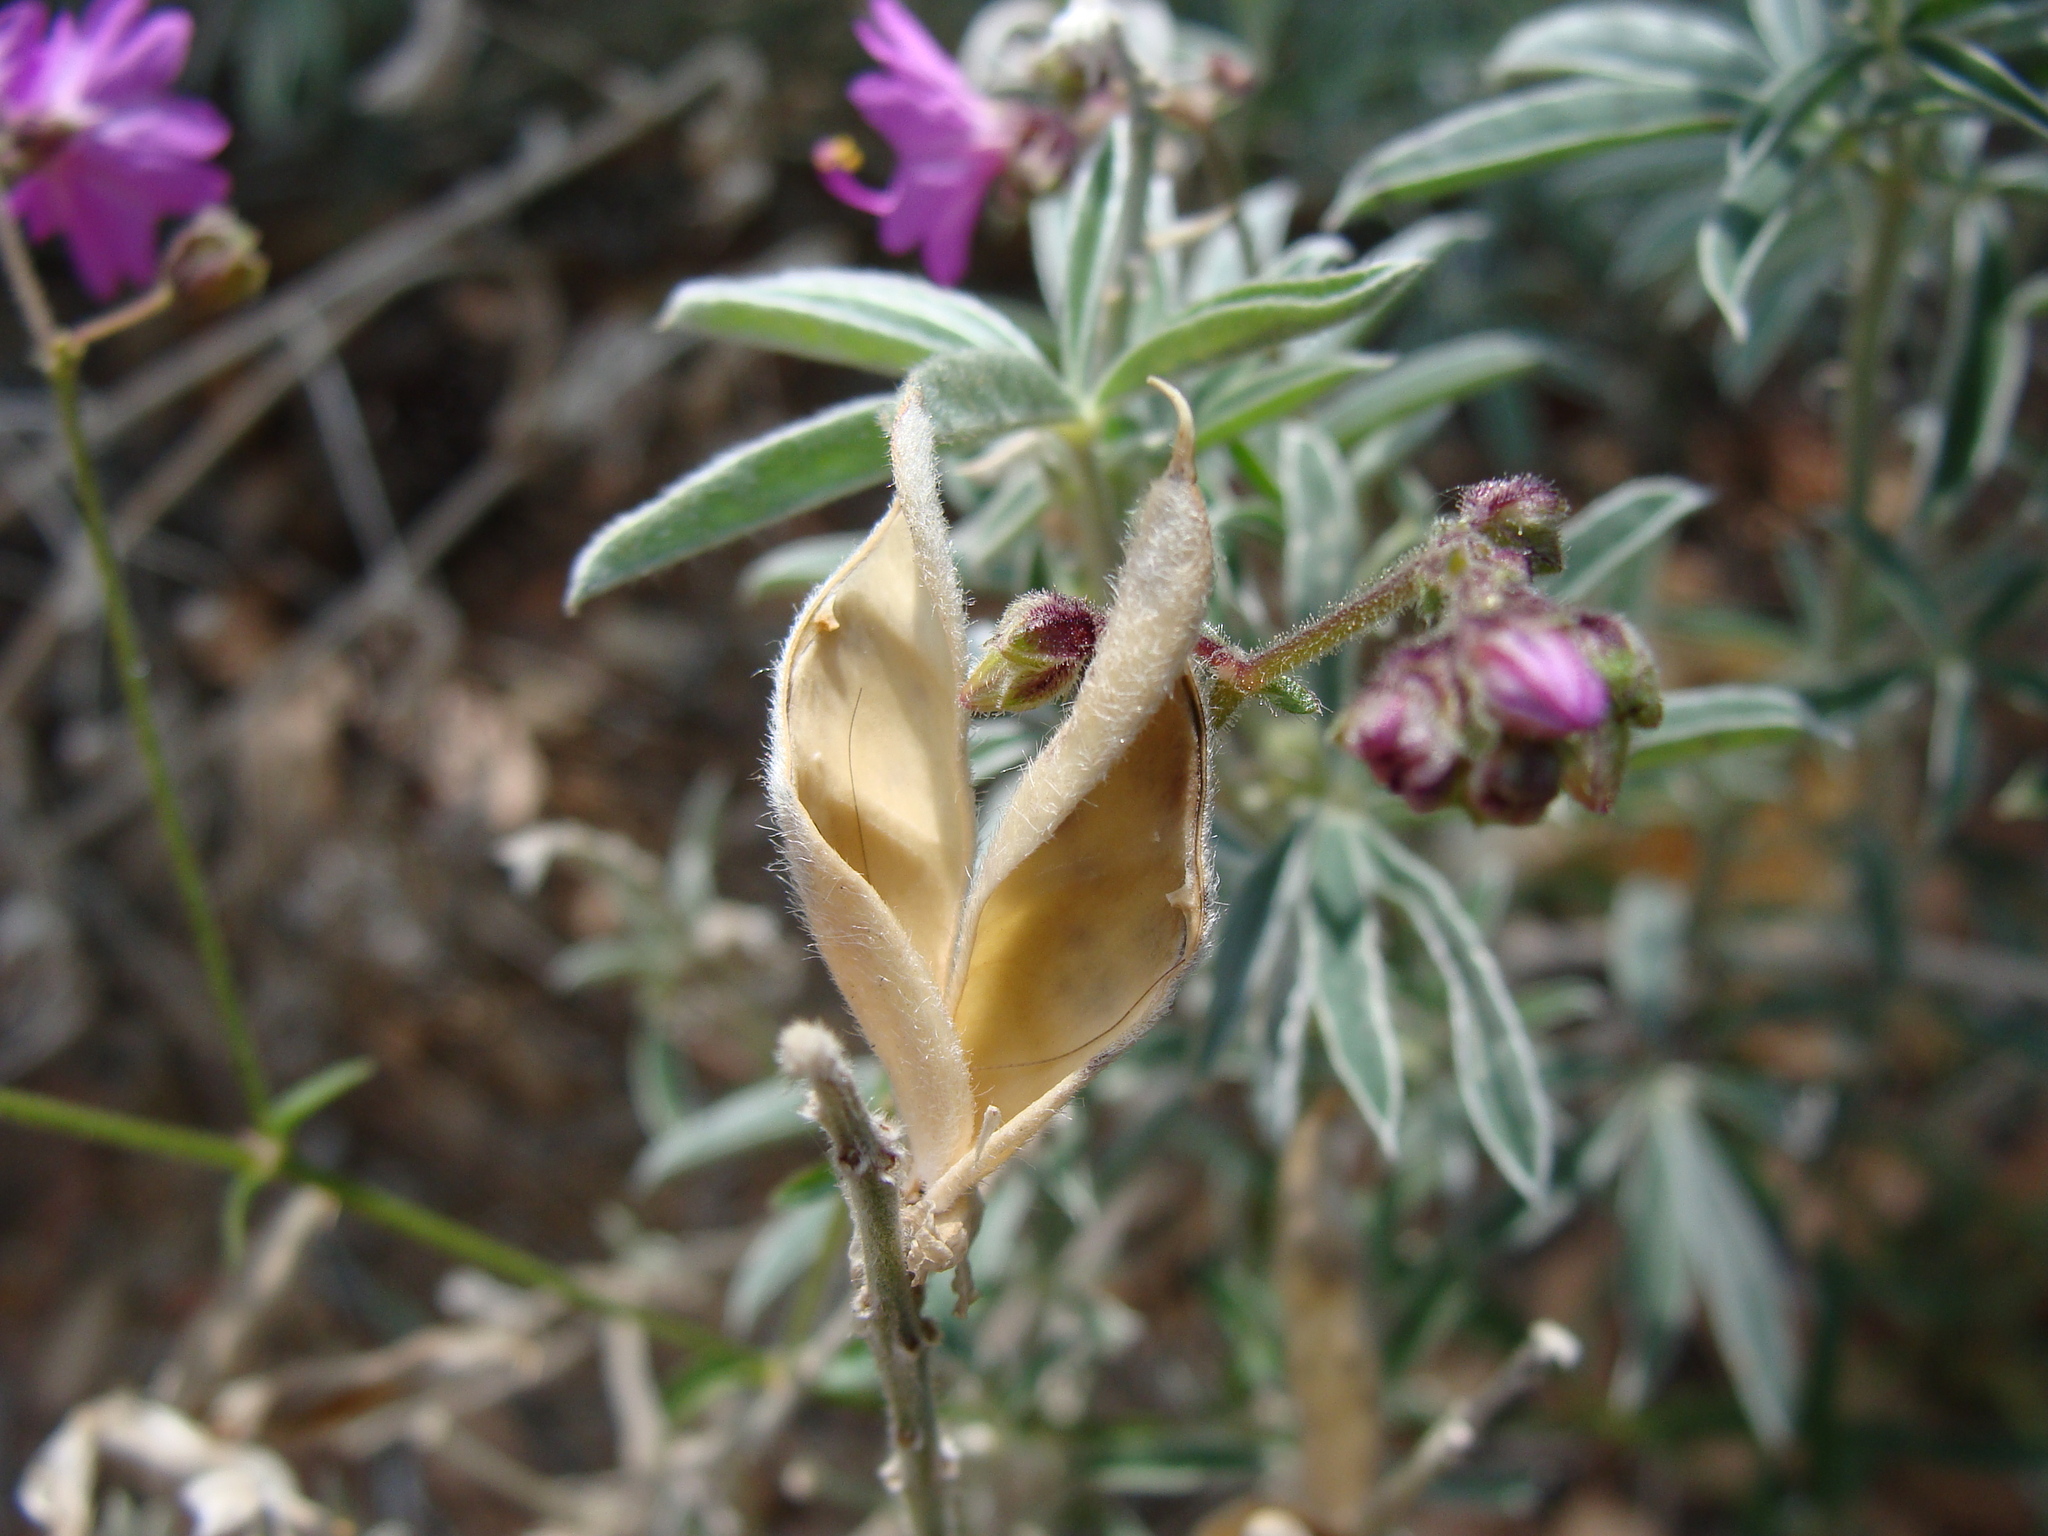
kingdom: Plantae
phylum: Tracheophyta
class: Magnoliopsida
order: Fabales
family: Fabaceae
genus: Vicia
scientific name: Vicia pulchella
